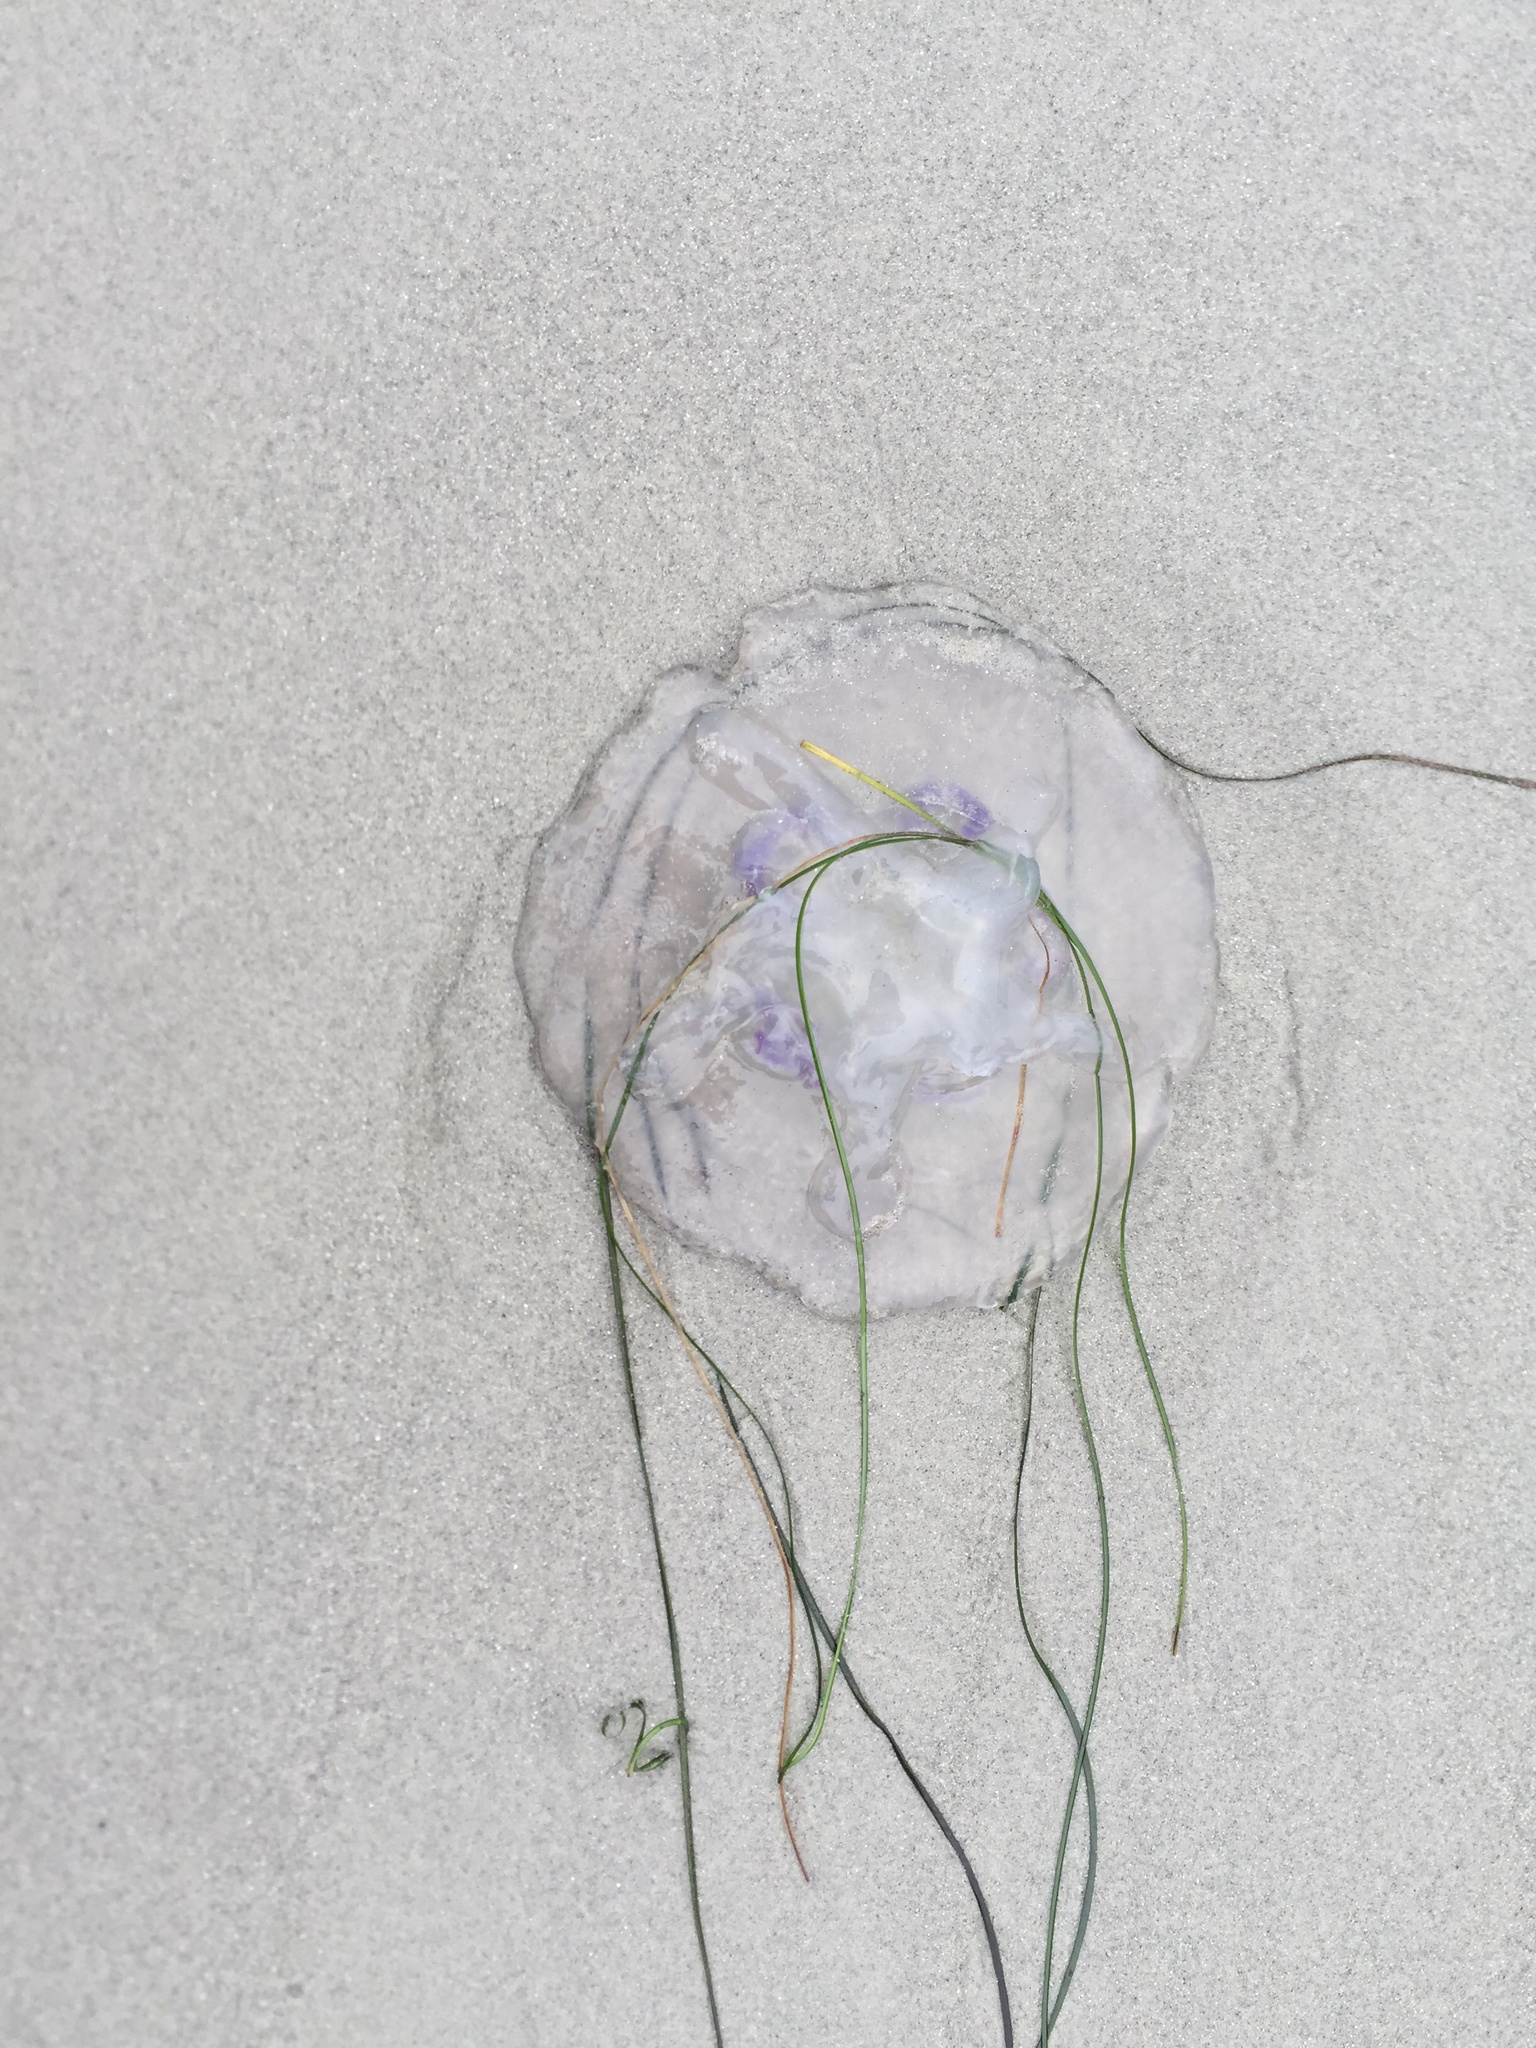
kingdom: Animalia
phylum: Cnidaria
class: Scyphozoa
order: Semaeostomeae
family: Ulmaridae
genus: Aurelia
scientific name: Aurelia labiata
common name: Pacific moon jelly
